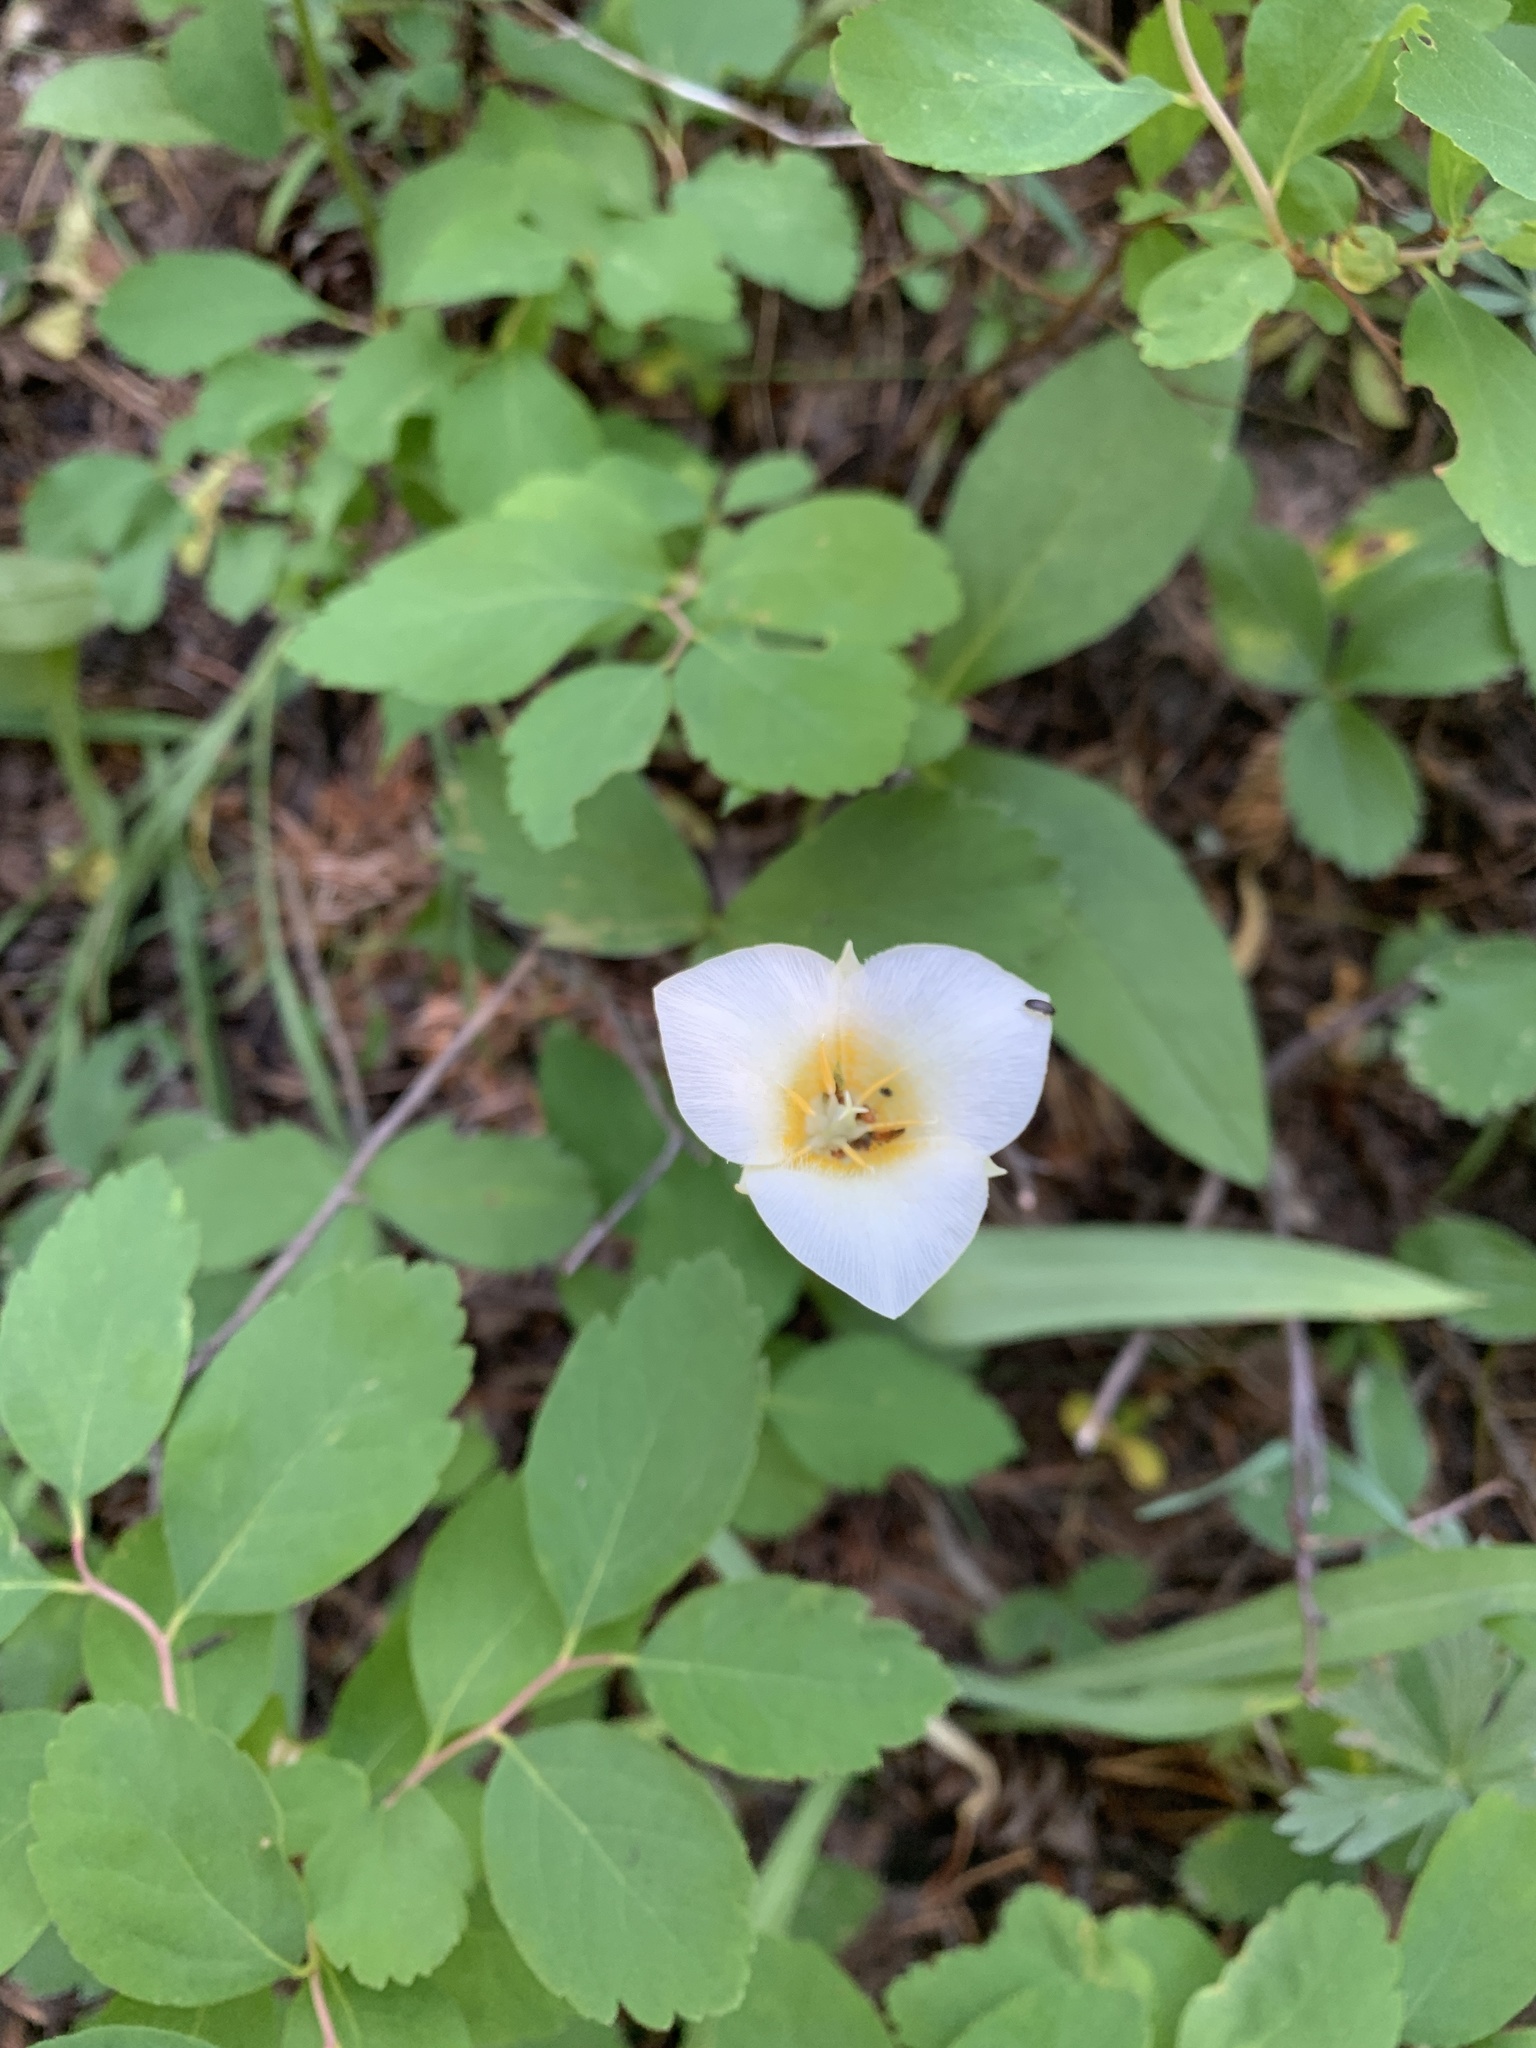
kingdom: Plantae
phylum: Tracheophyta
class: Liliopsida
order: Liliales
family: Liliaceae
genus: Calochortus
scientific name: Calochortus apiculatus
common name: Baker's mariposa lily
